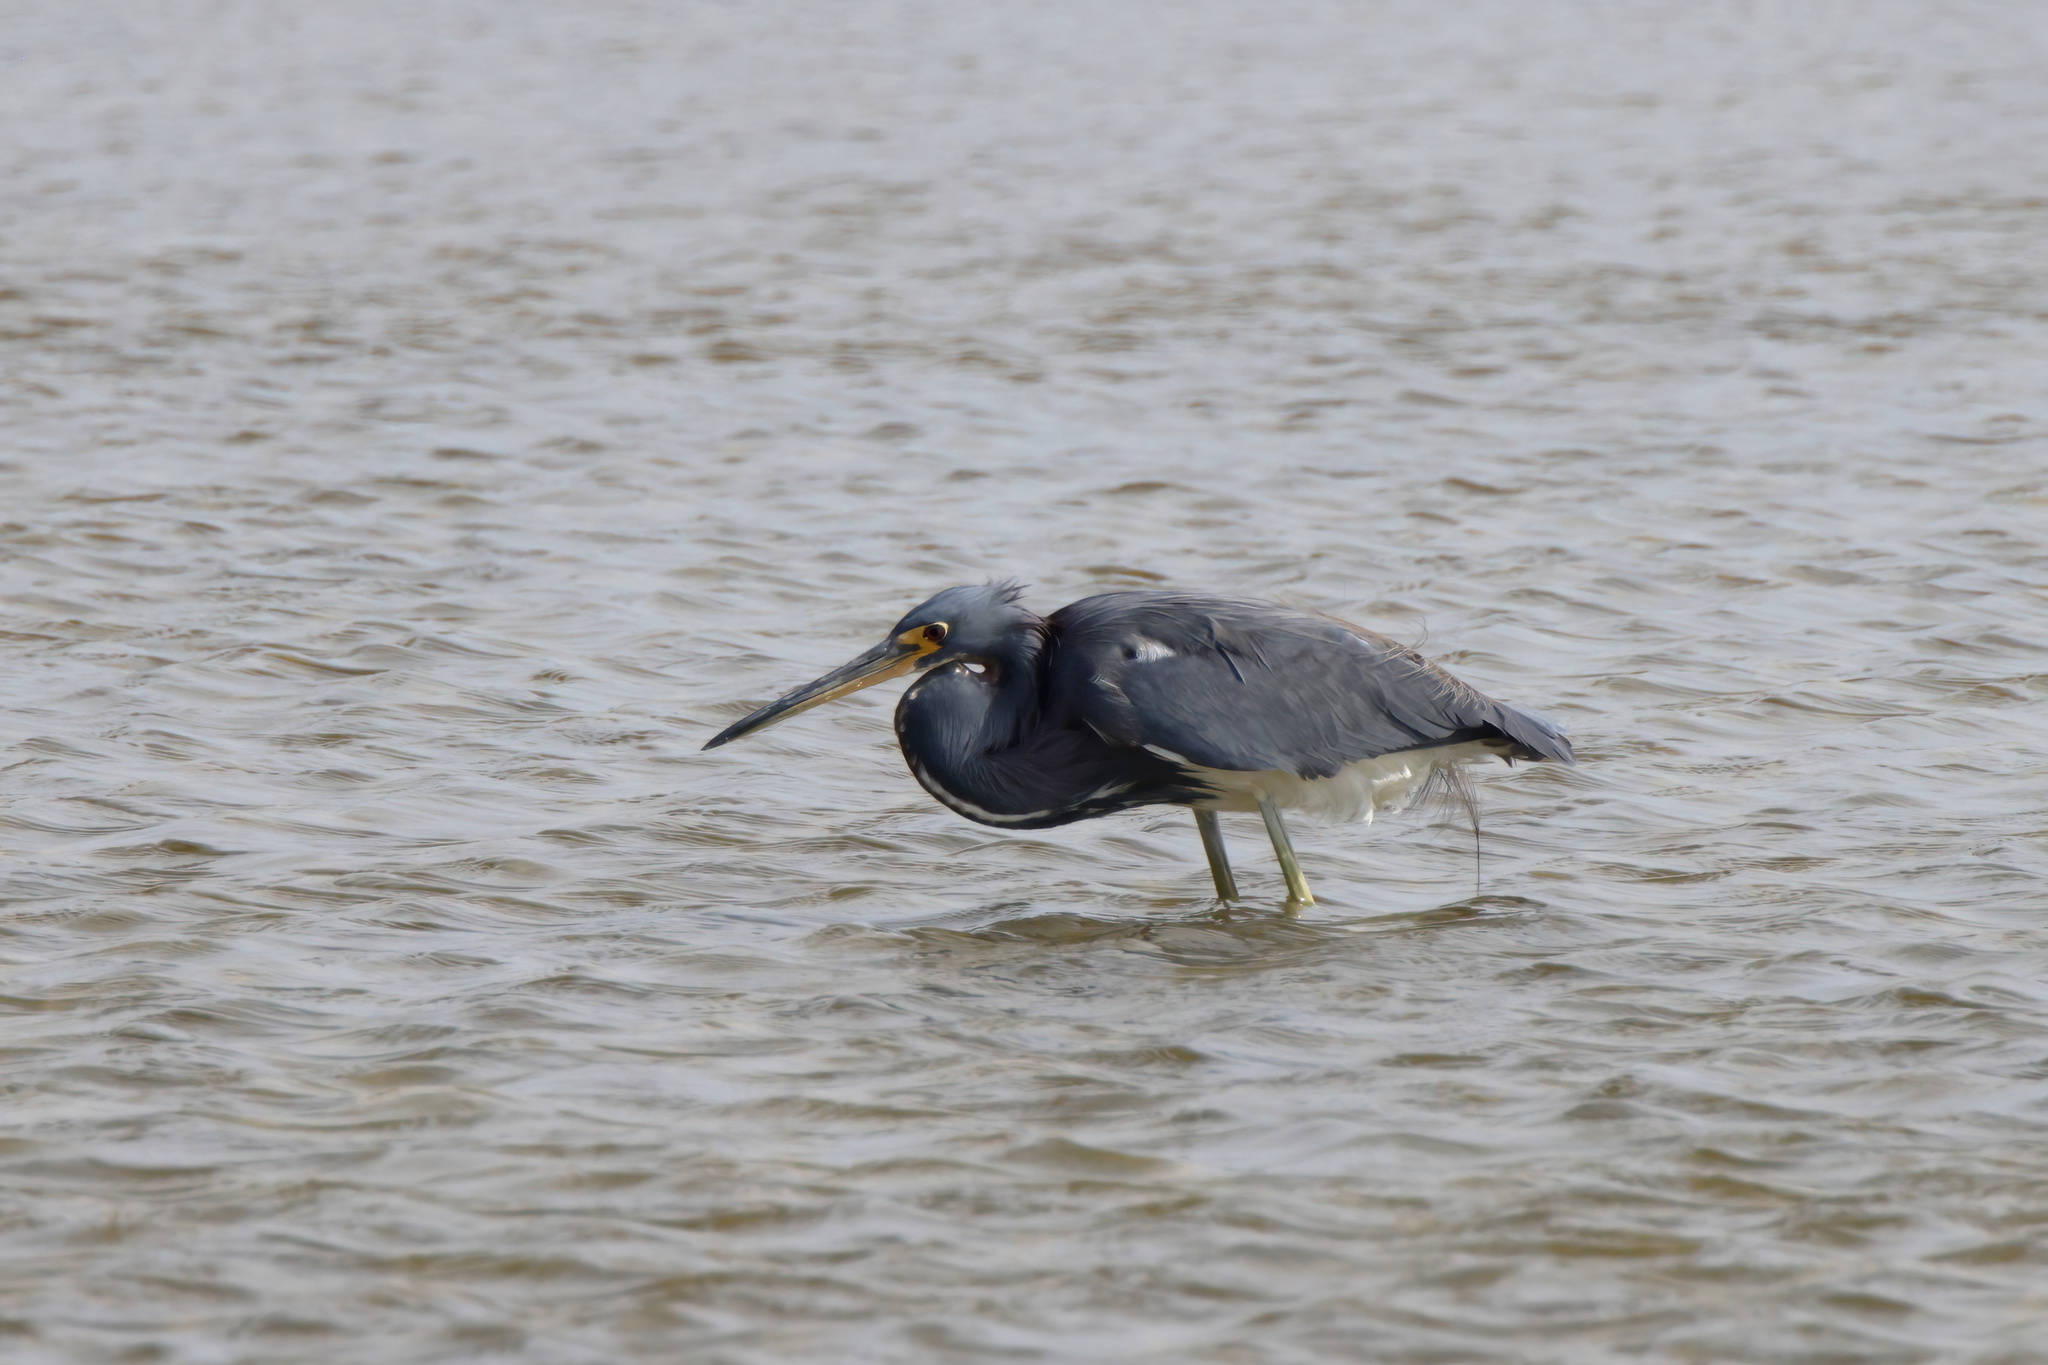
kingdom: Animalia
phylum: Chordata
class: Aves
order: Pelecaniformes
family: Ardeidae
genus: Egretta
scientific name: Egretta tricolor
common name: Tricolored heron
